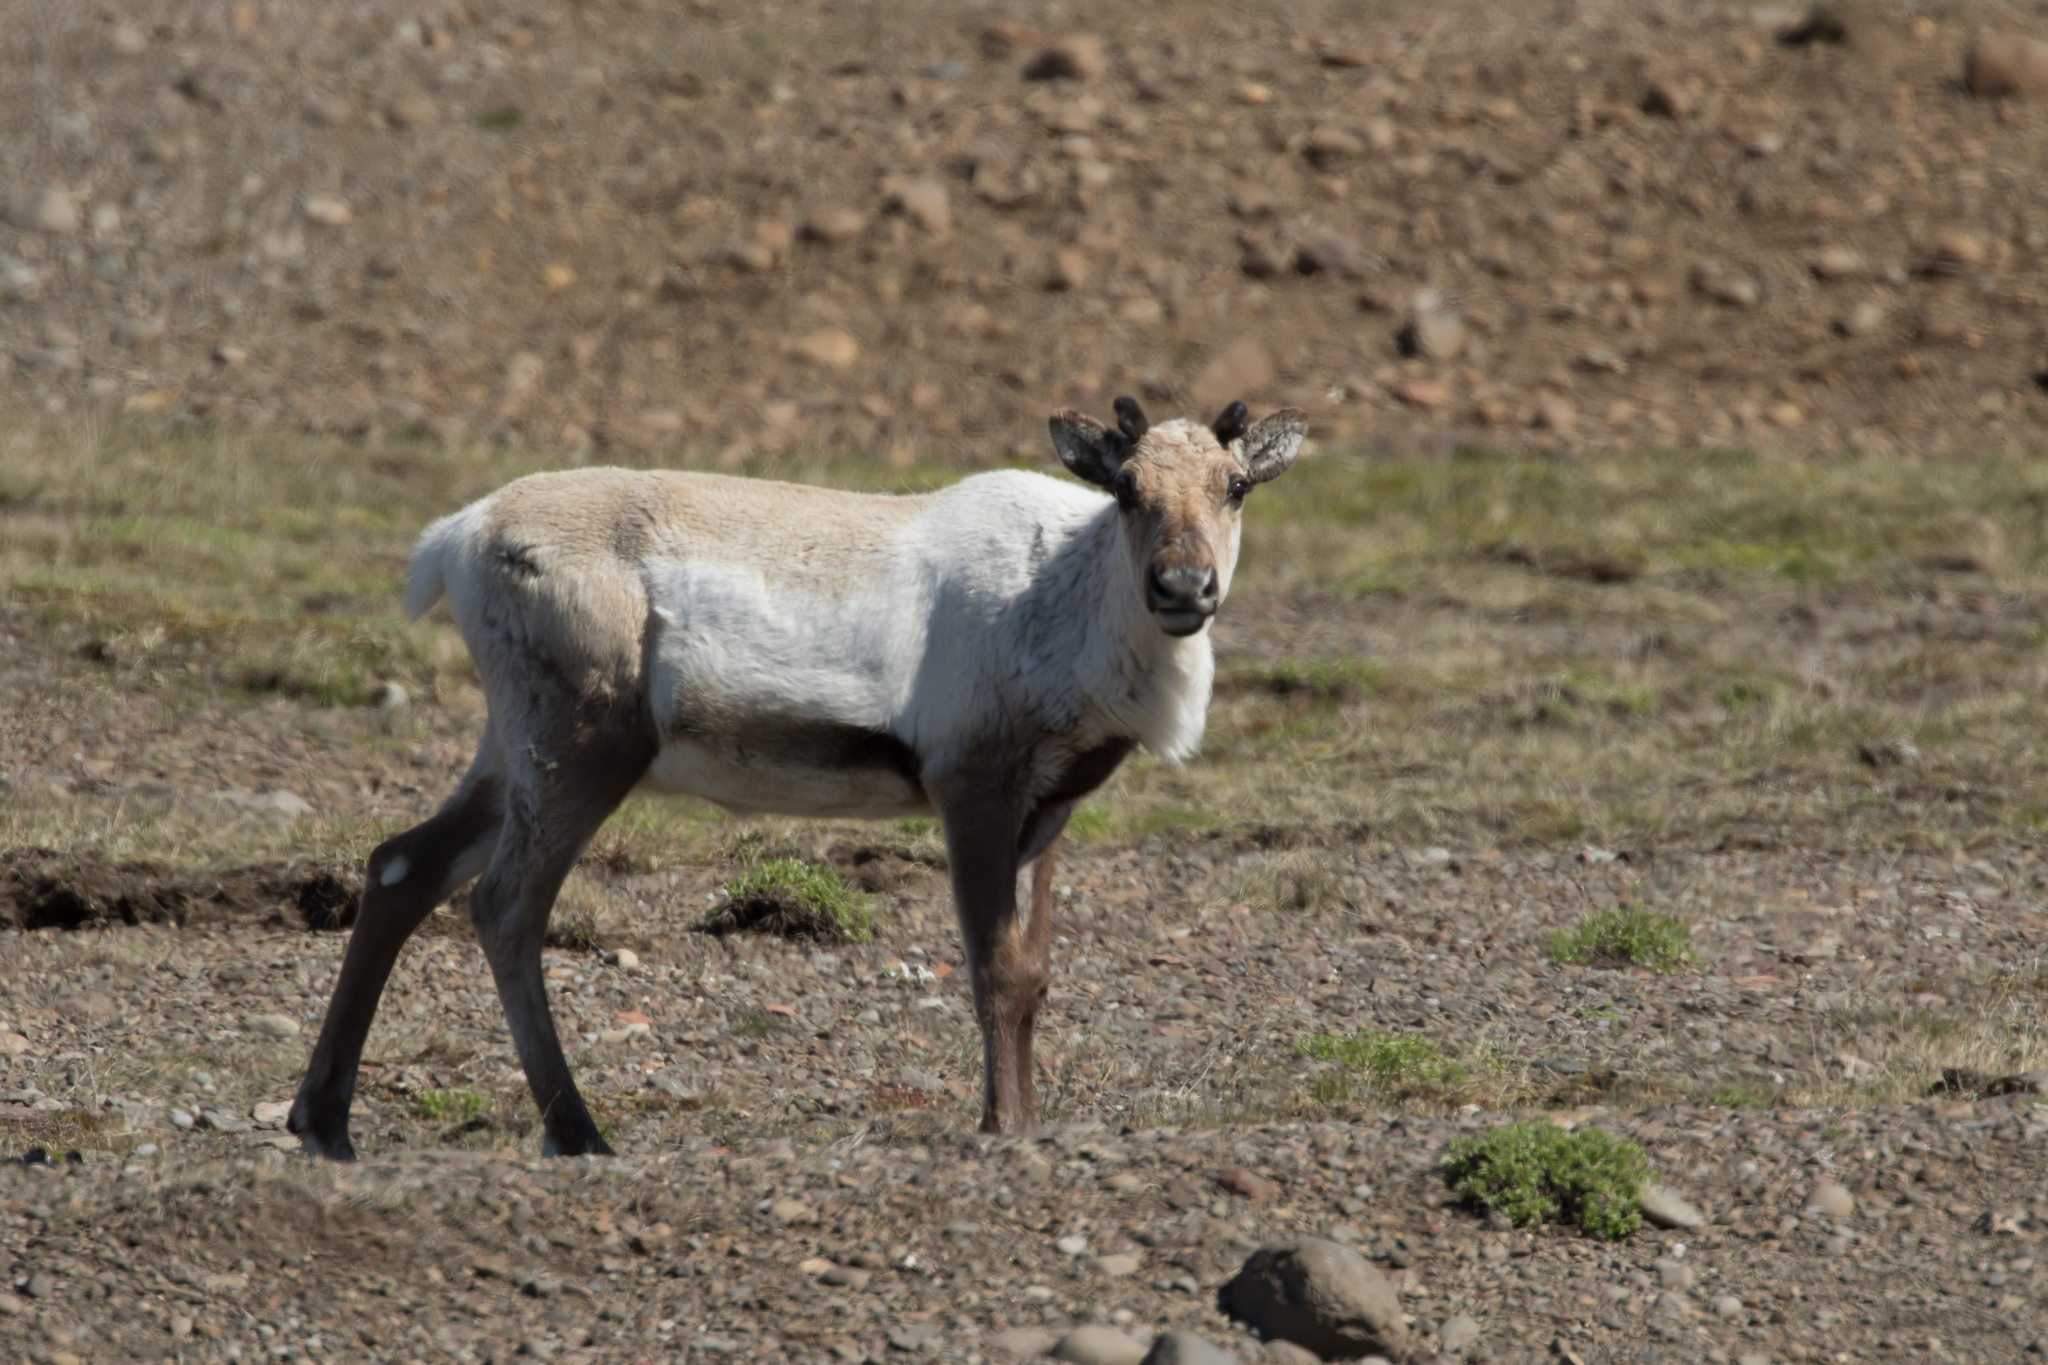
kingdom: Animalia
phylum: Chordata
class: Mammalia
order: Artiodactyla
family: Cervidae
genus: Rangifer
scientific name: Rangifer tarandus
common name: Reindeer
